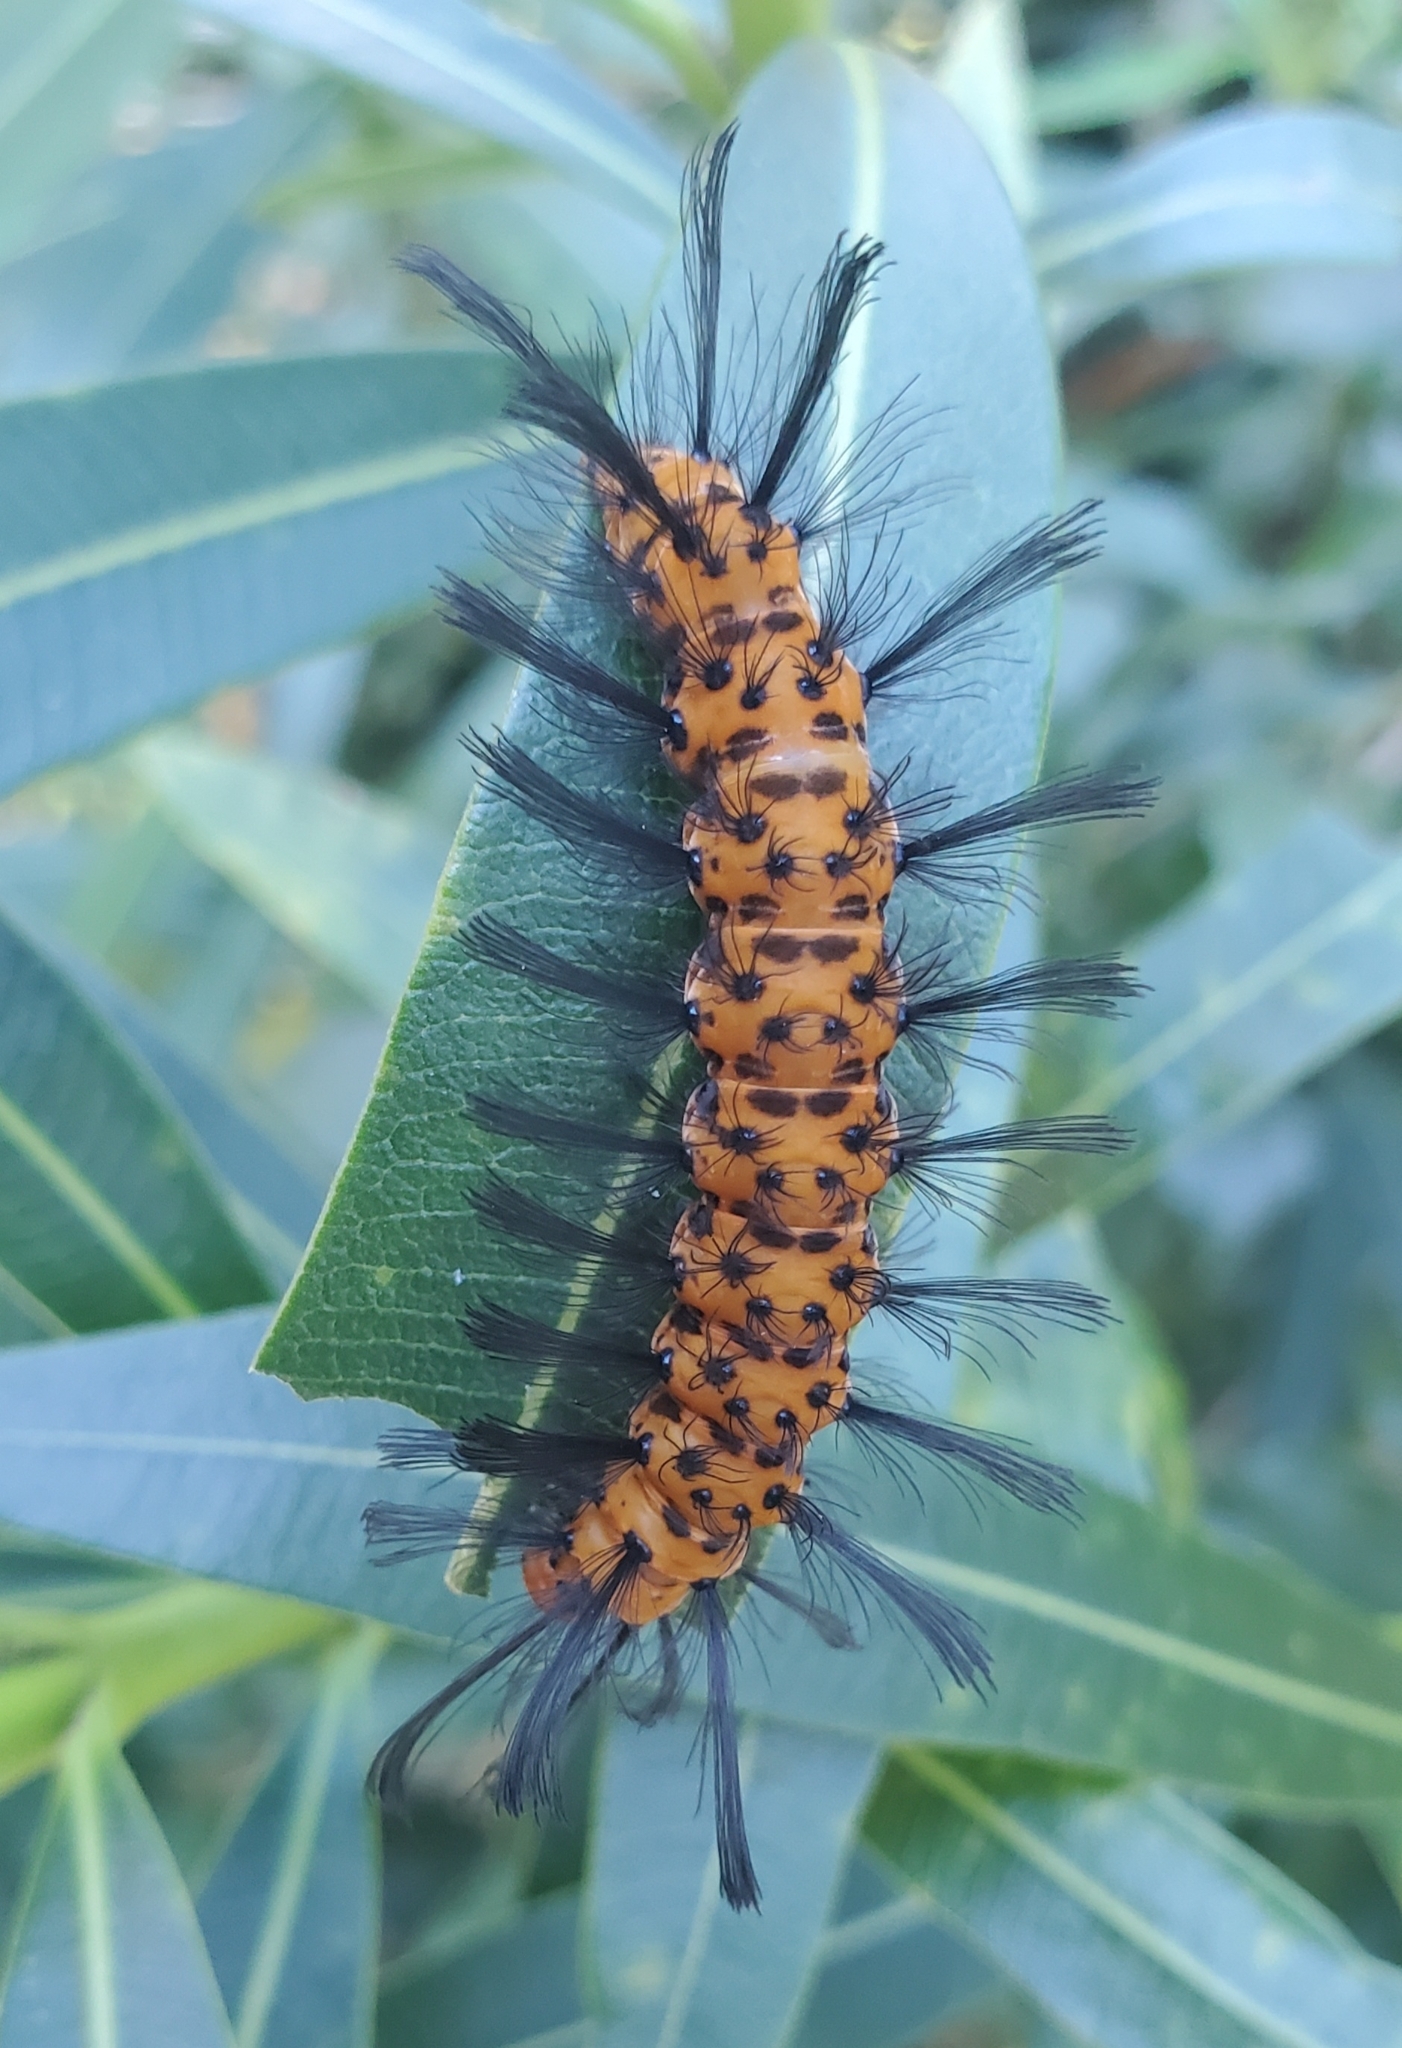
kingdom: Animalia
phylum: Arthropoda
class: Insecta
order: Lepidoptera
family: Erebidae
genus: Syntomeida
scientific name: Syntomeida epilais
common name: Polka-dot wasp moth
